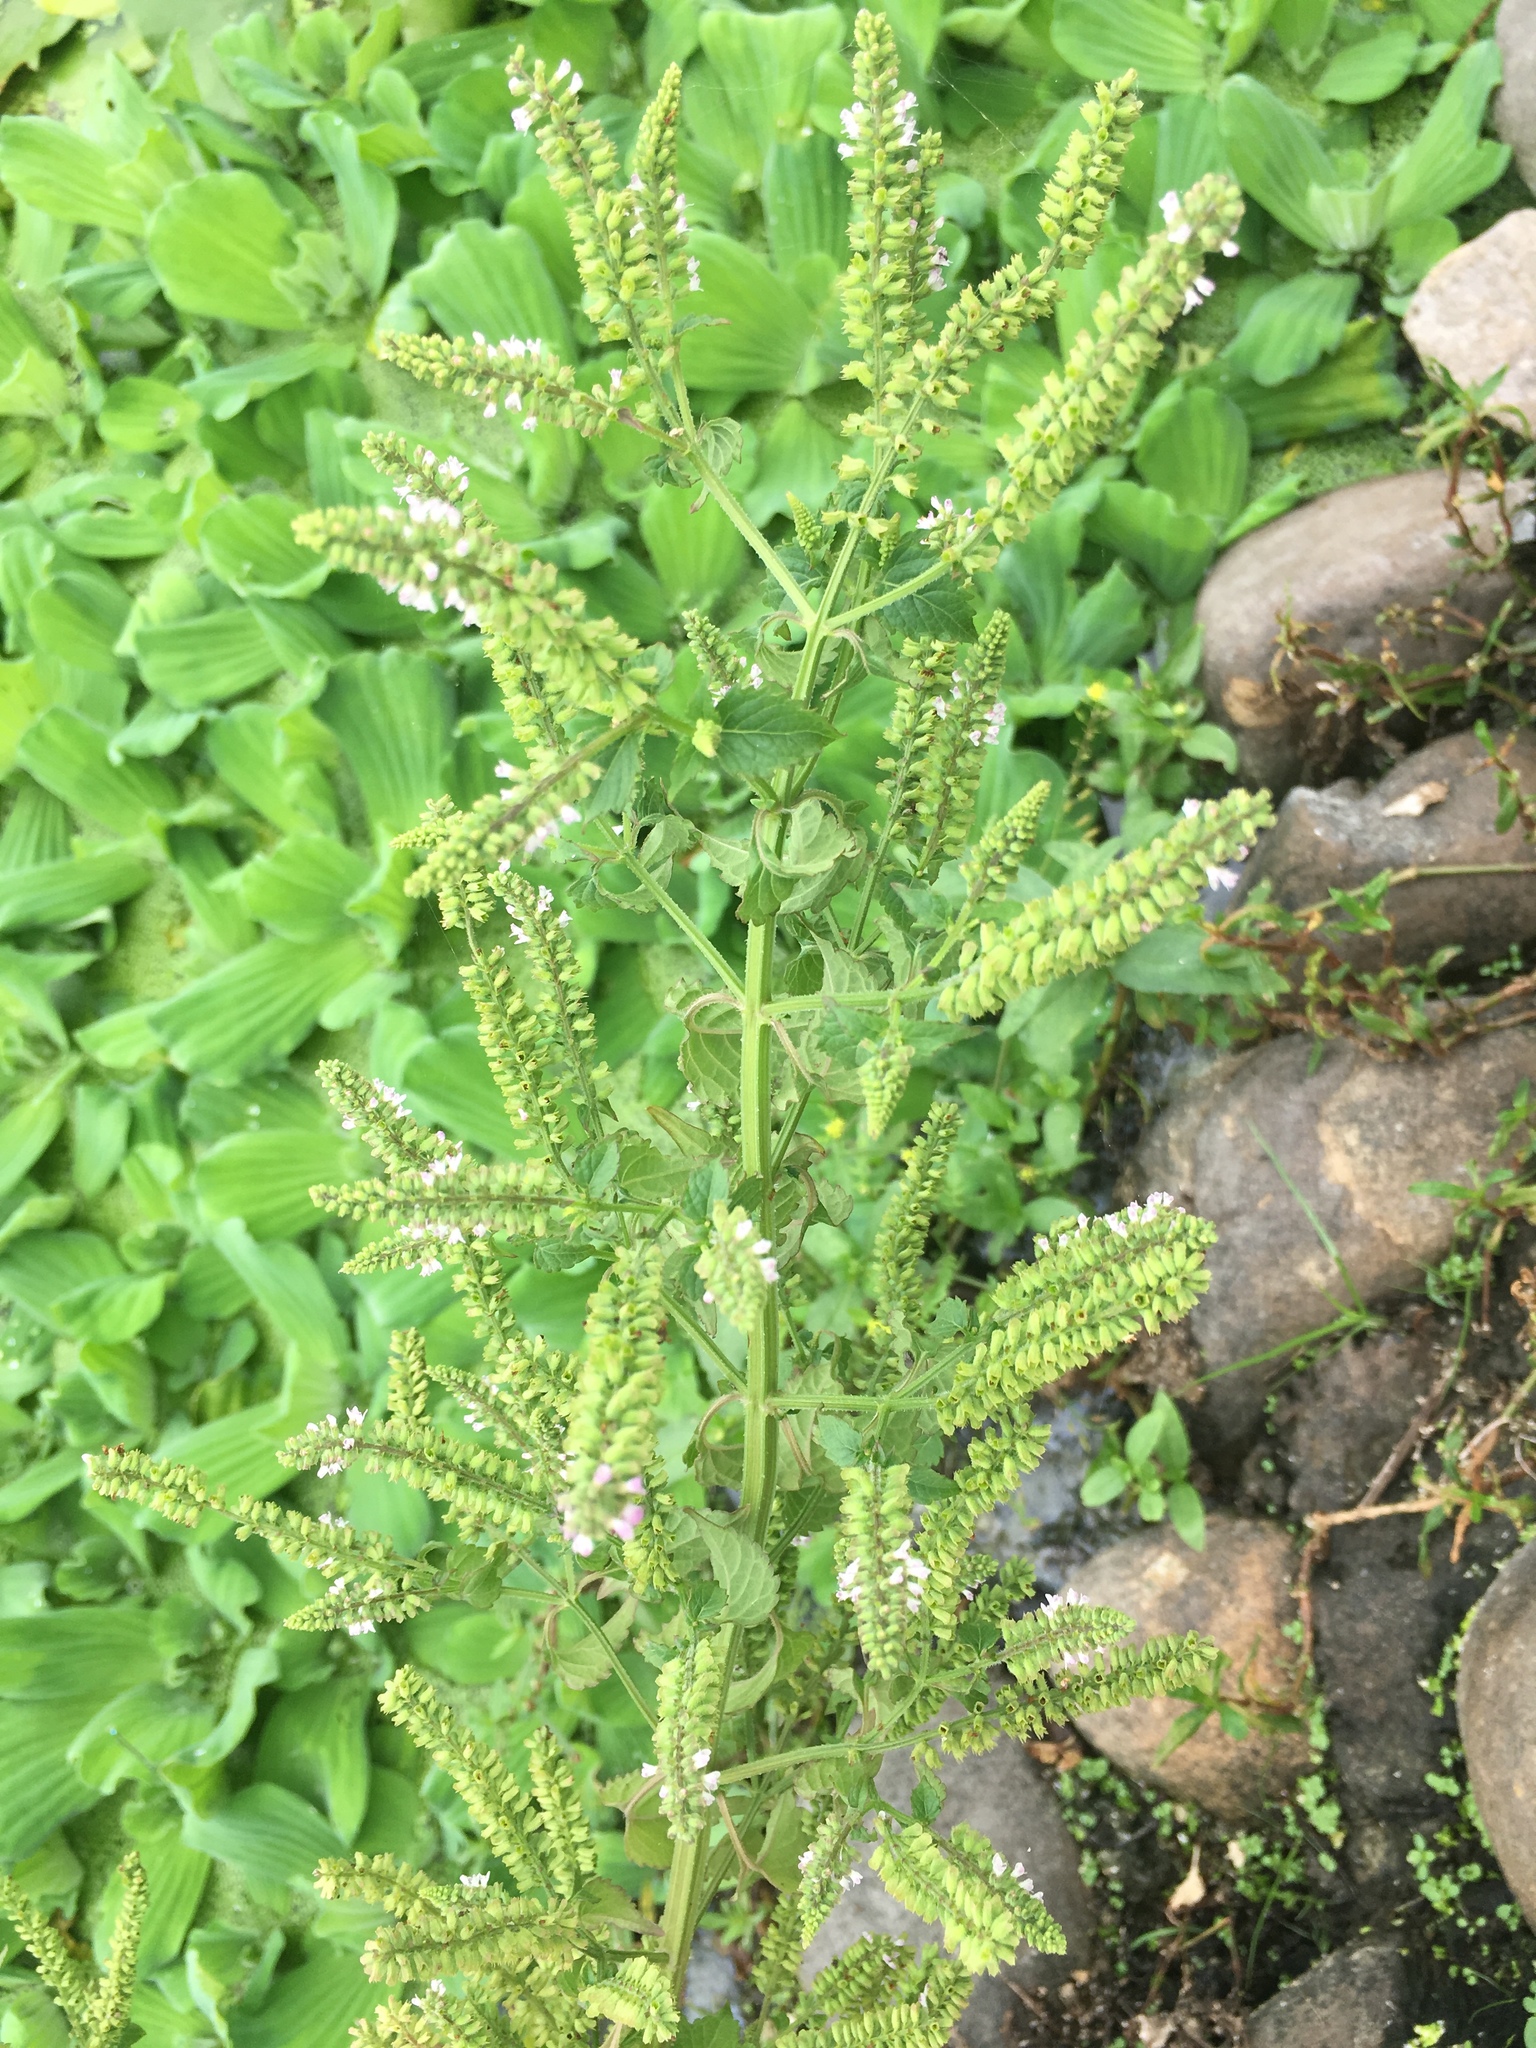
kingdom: Plantae
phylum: Tracheophyta
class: Magnoliopsida
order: Lamiales
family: Lamiaceae
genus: Salvia
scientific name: Salvia plebeia
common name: Australian sage
